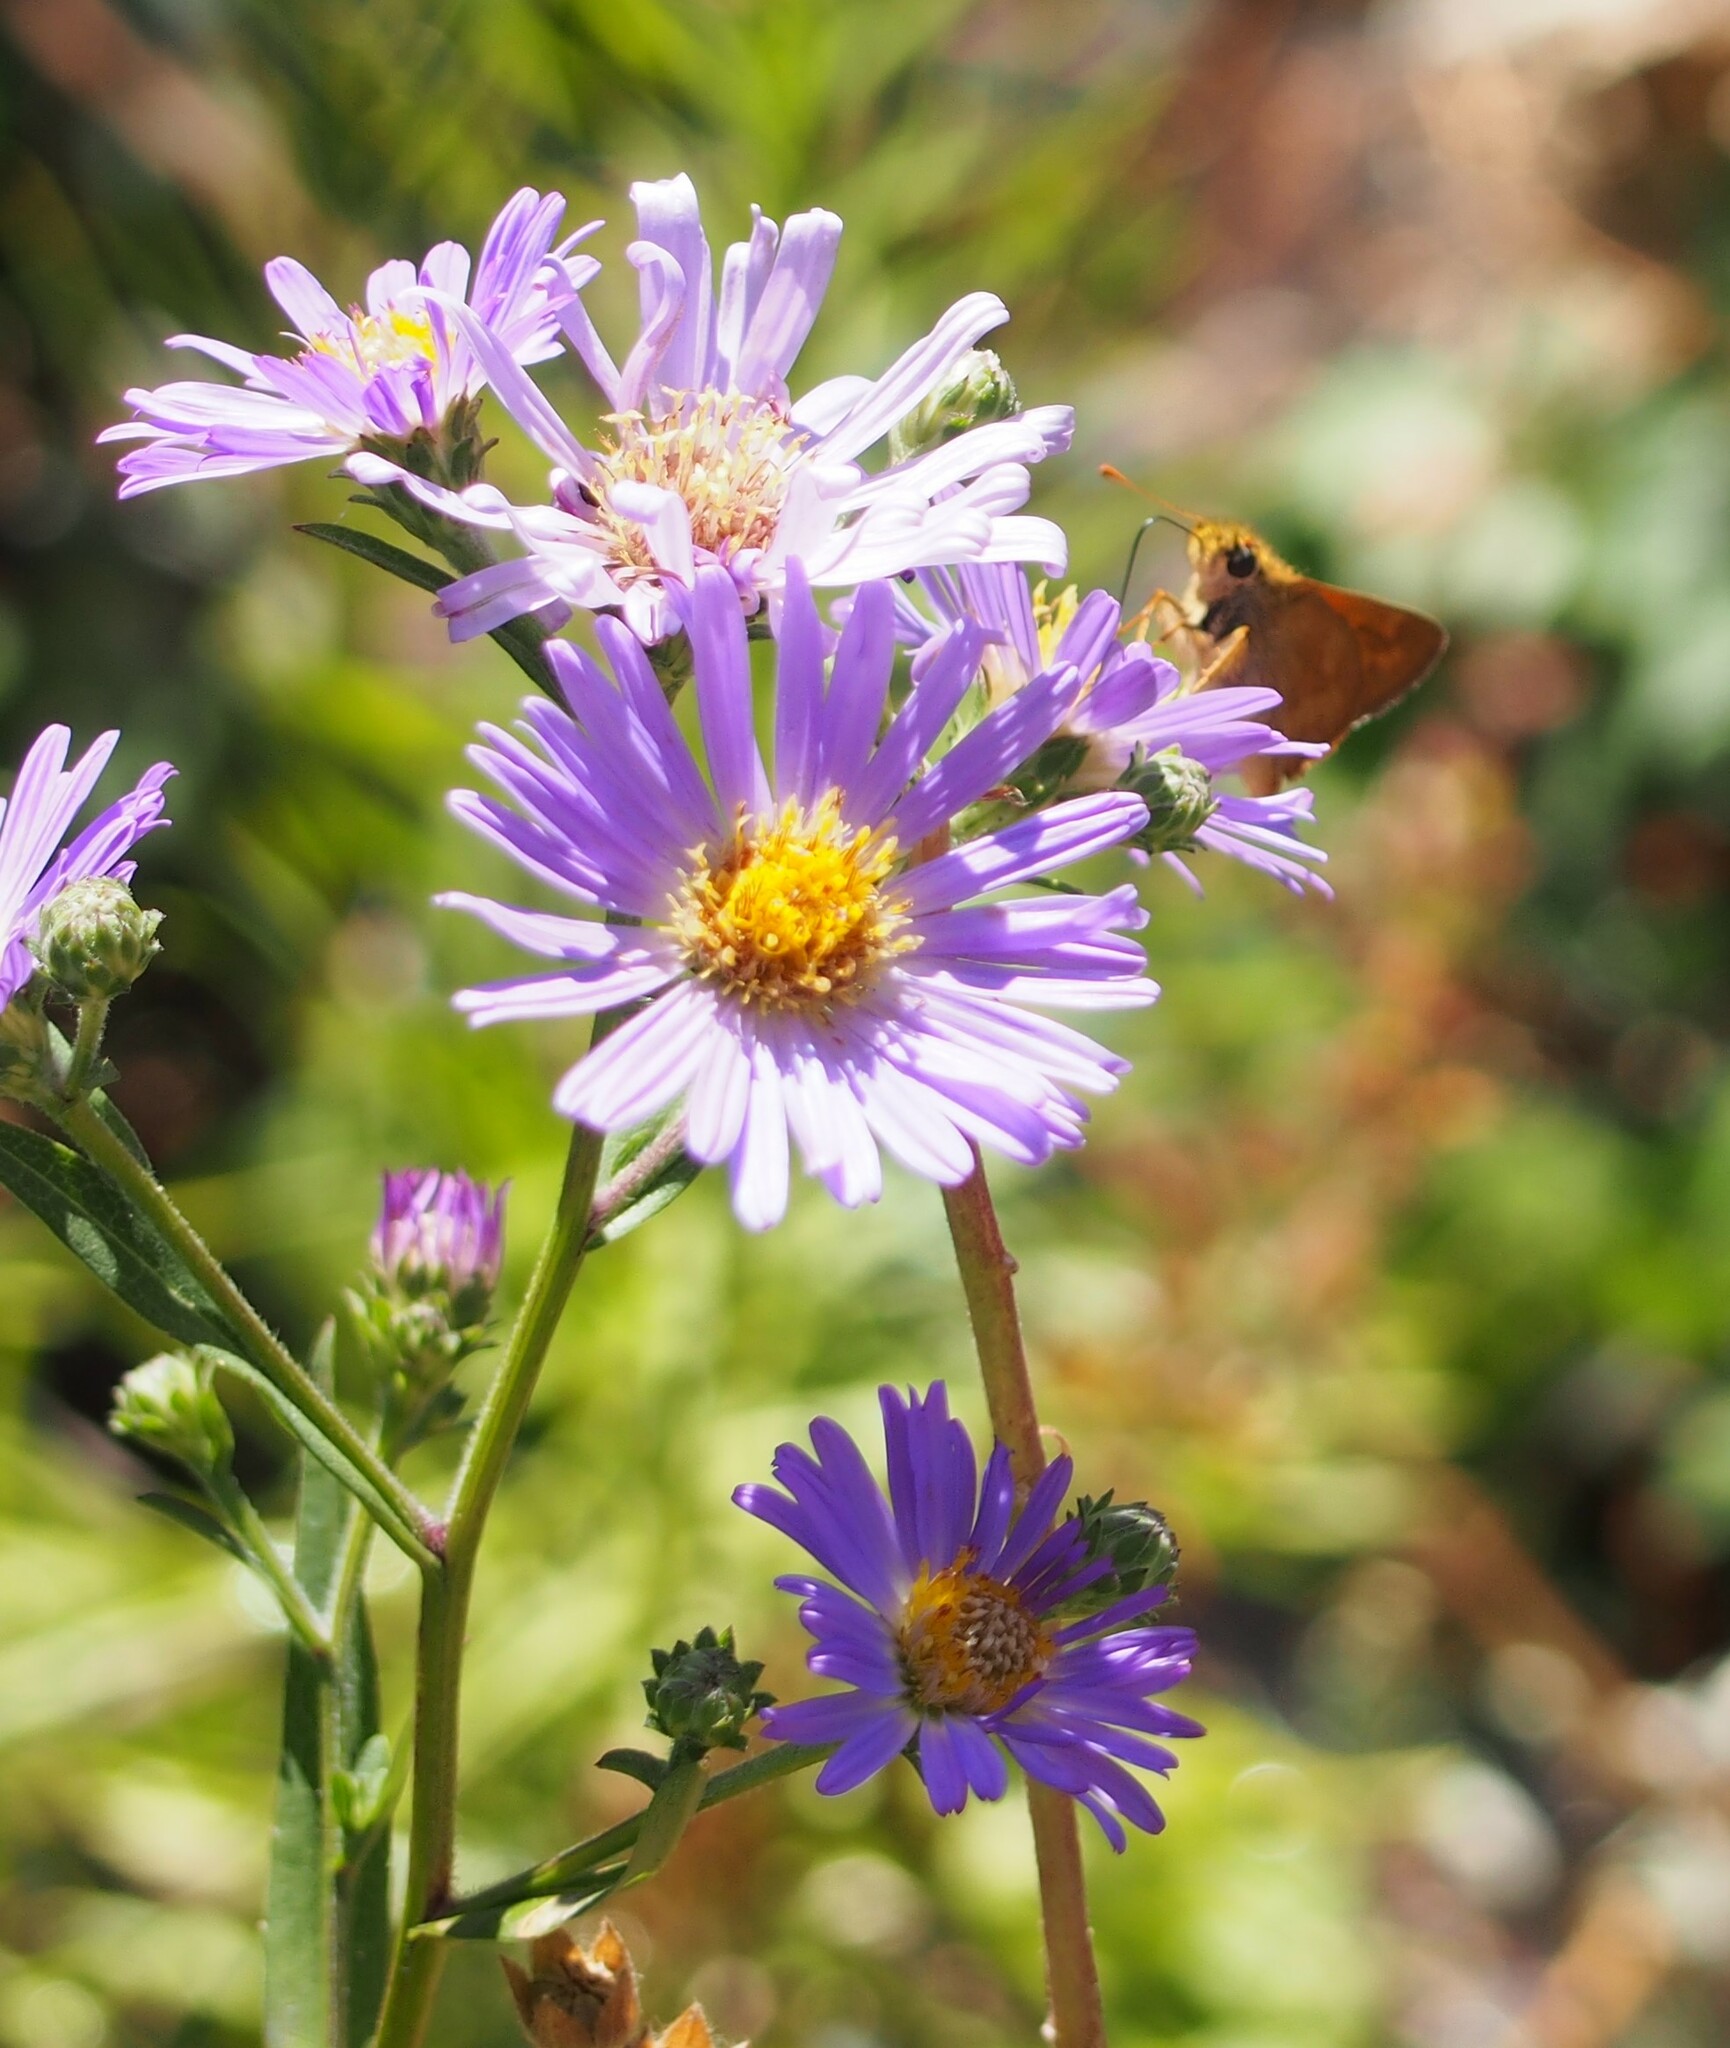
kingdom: Animalia
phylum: Arthropoda
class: Insecta
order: Lepidoptera
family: Hesperiidae
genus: Ochlodes
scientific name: Ochlodes sylvanoides
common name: Woodland skipper
